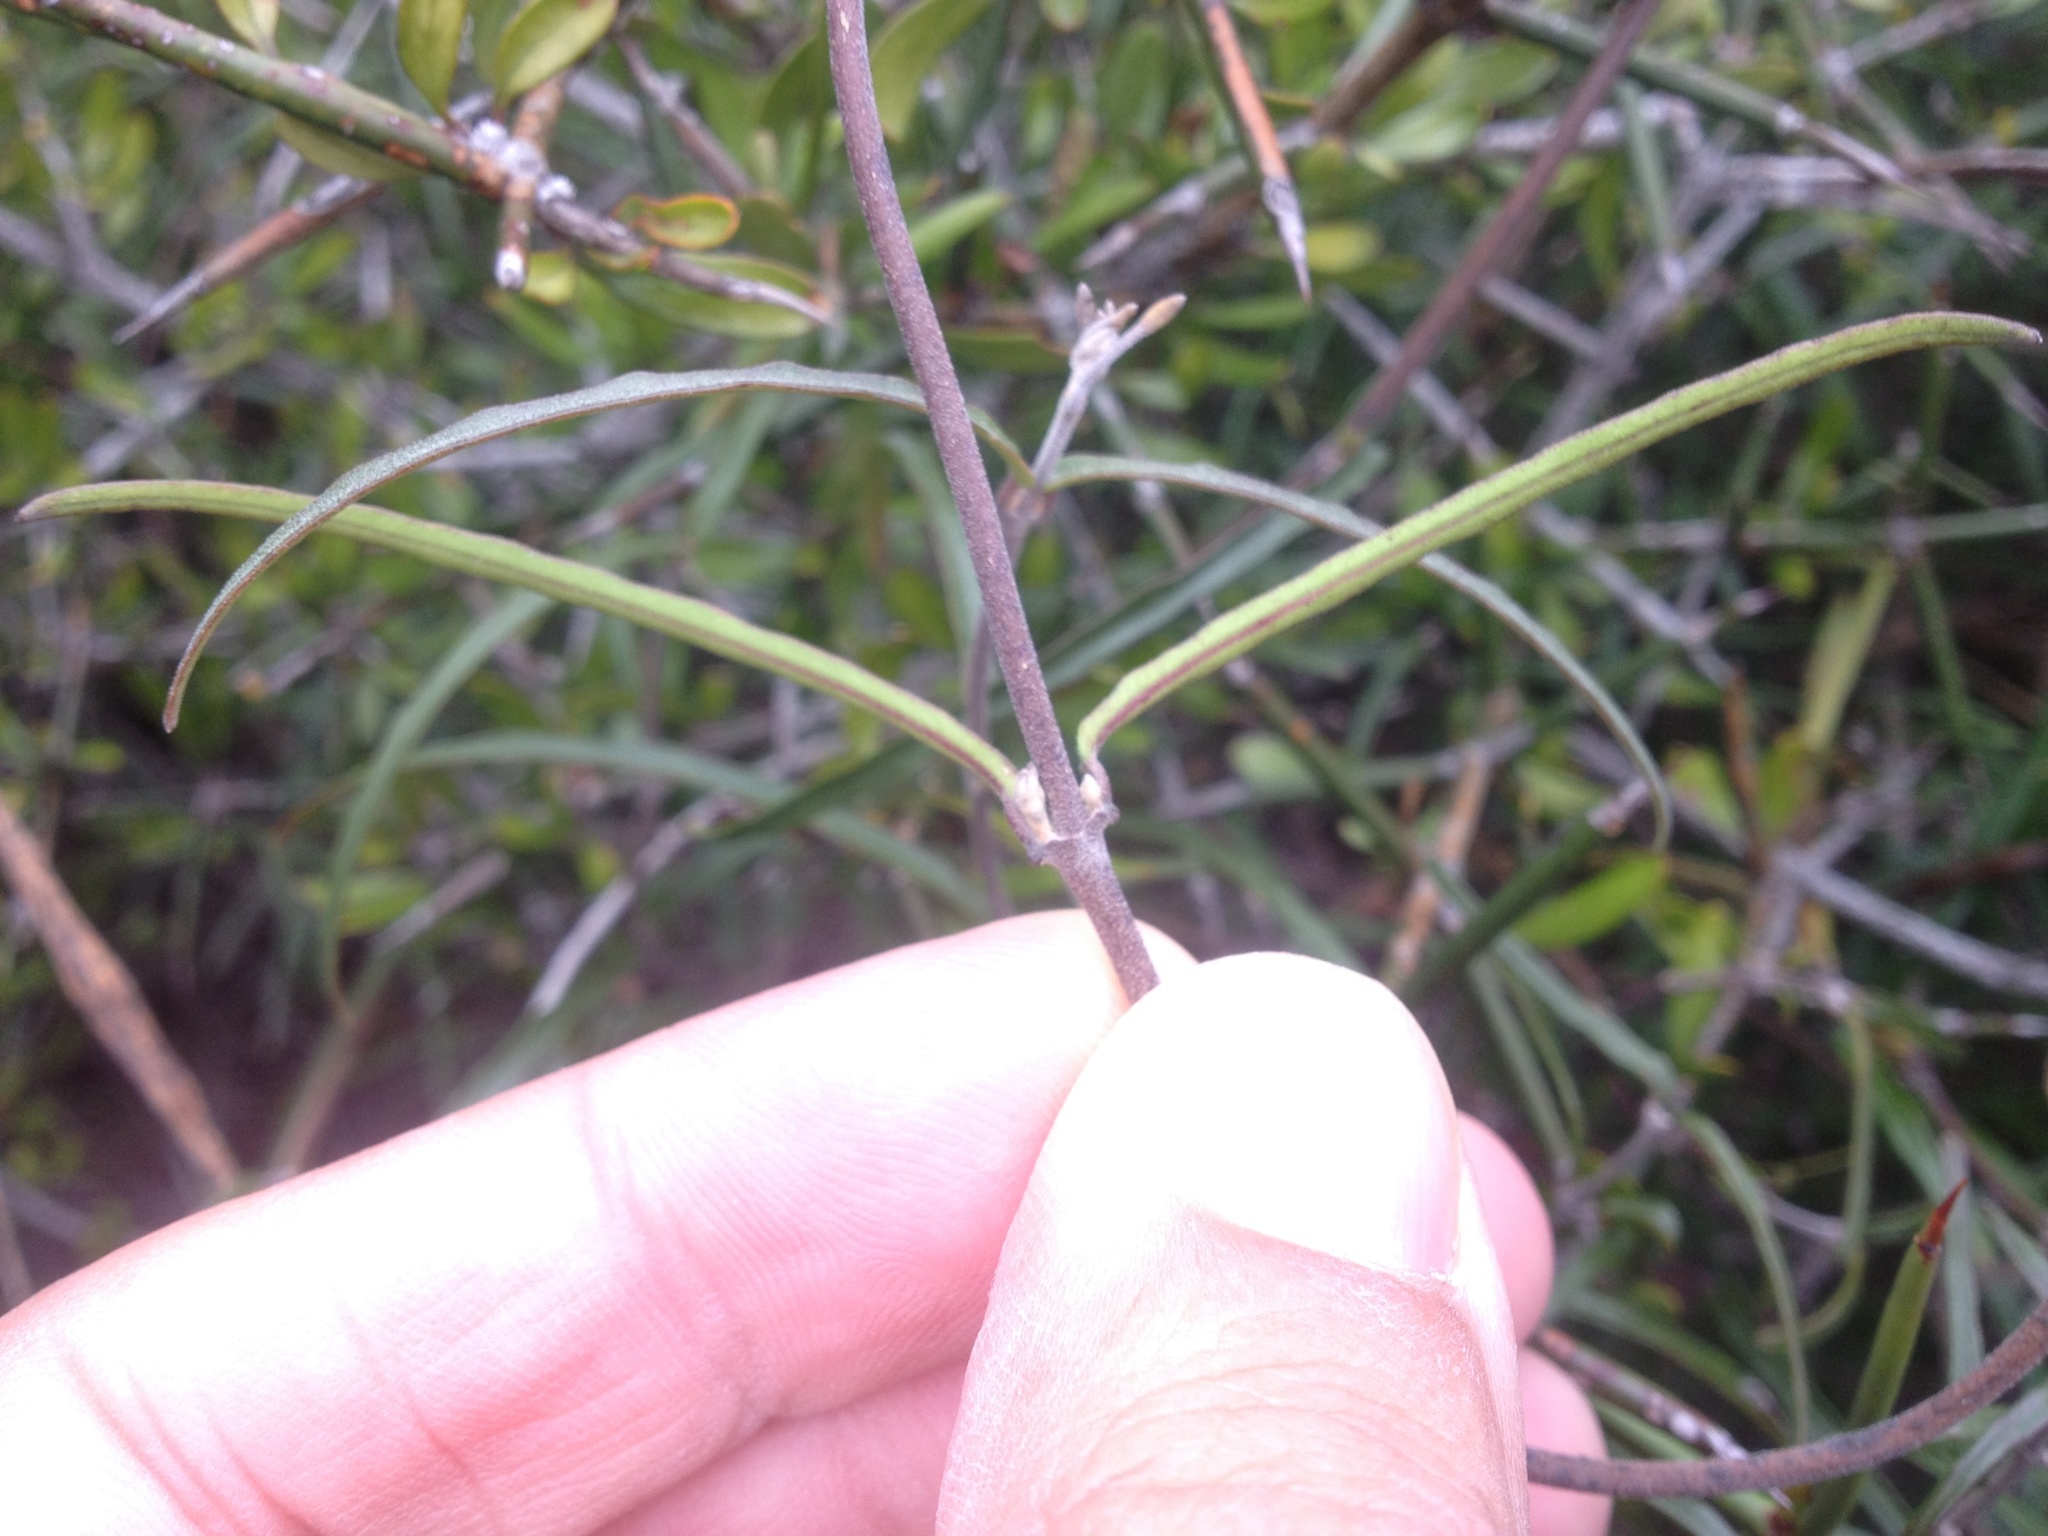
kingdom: Plantae
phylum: Tracheophyta
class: Magnoliopsida
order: Gentianales
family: Apocynaceae
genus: Parsonsia
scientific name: Parsonsia capsularis
